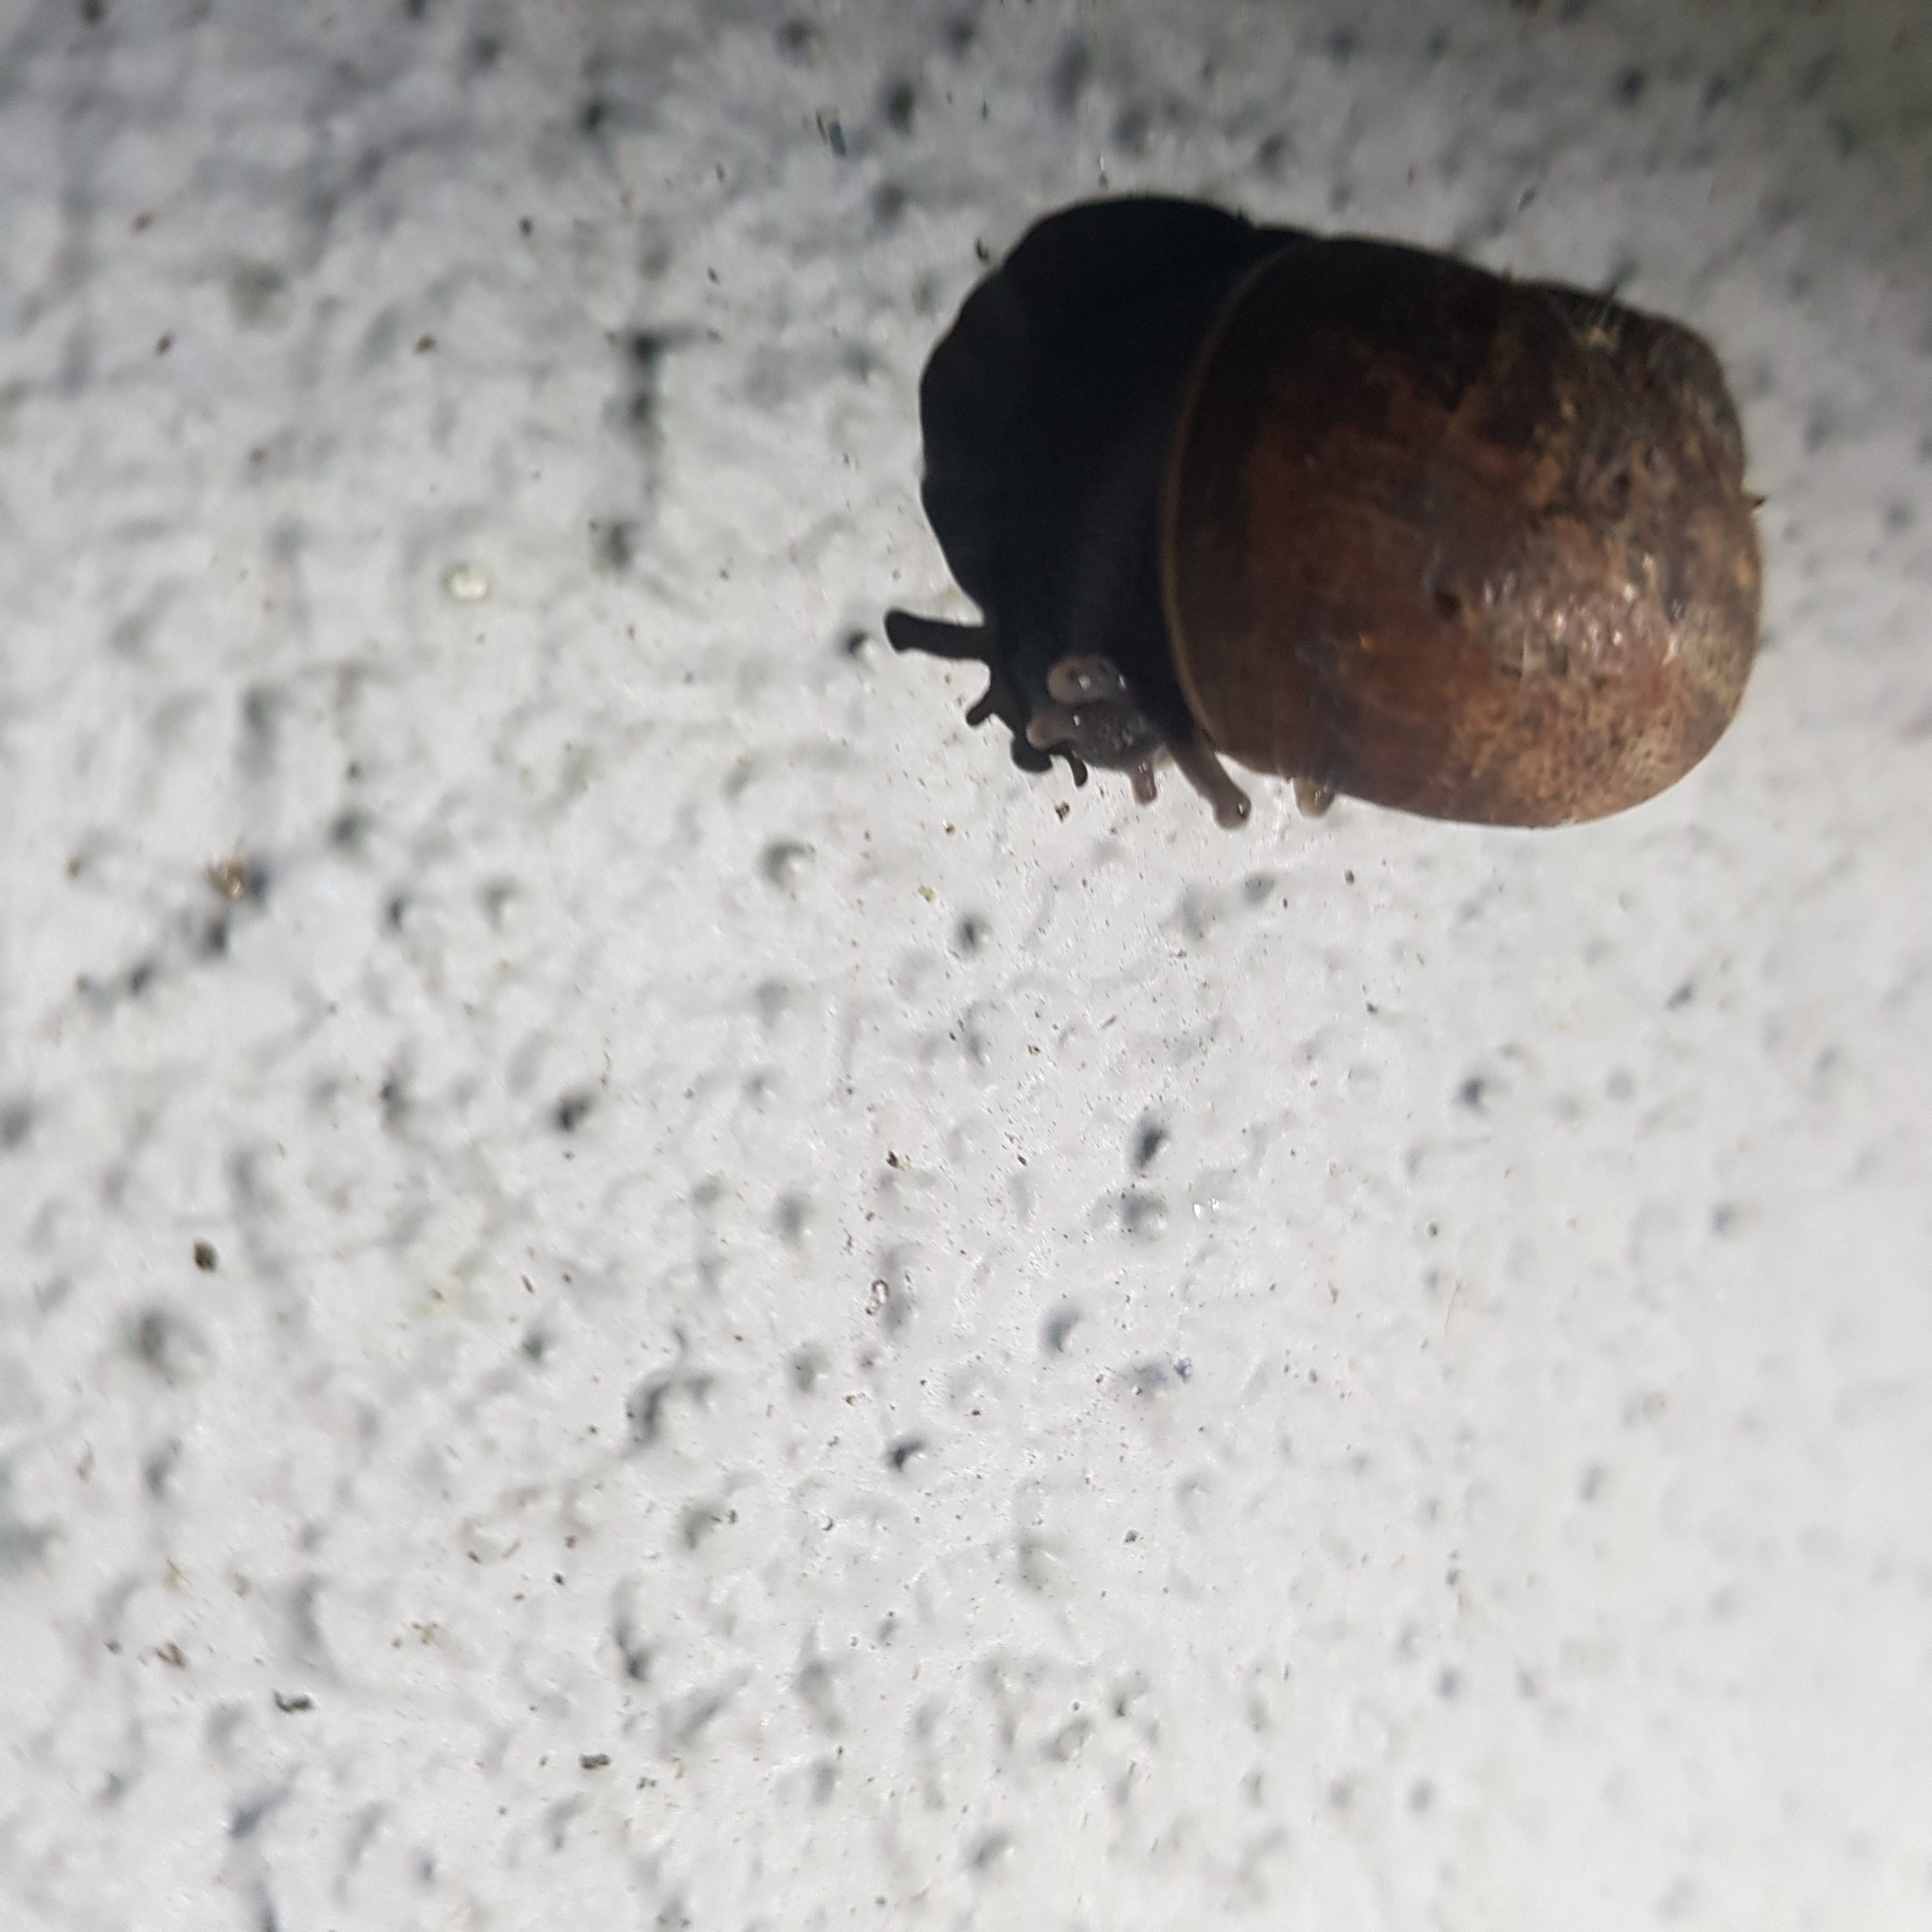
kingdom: Animalia
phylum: Mollusca
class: Gastropoda
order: Stylommatophora
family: Helicidae
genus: Cornu
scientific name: Cornu aspersum
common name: Brown garden snail
